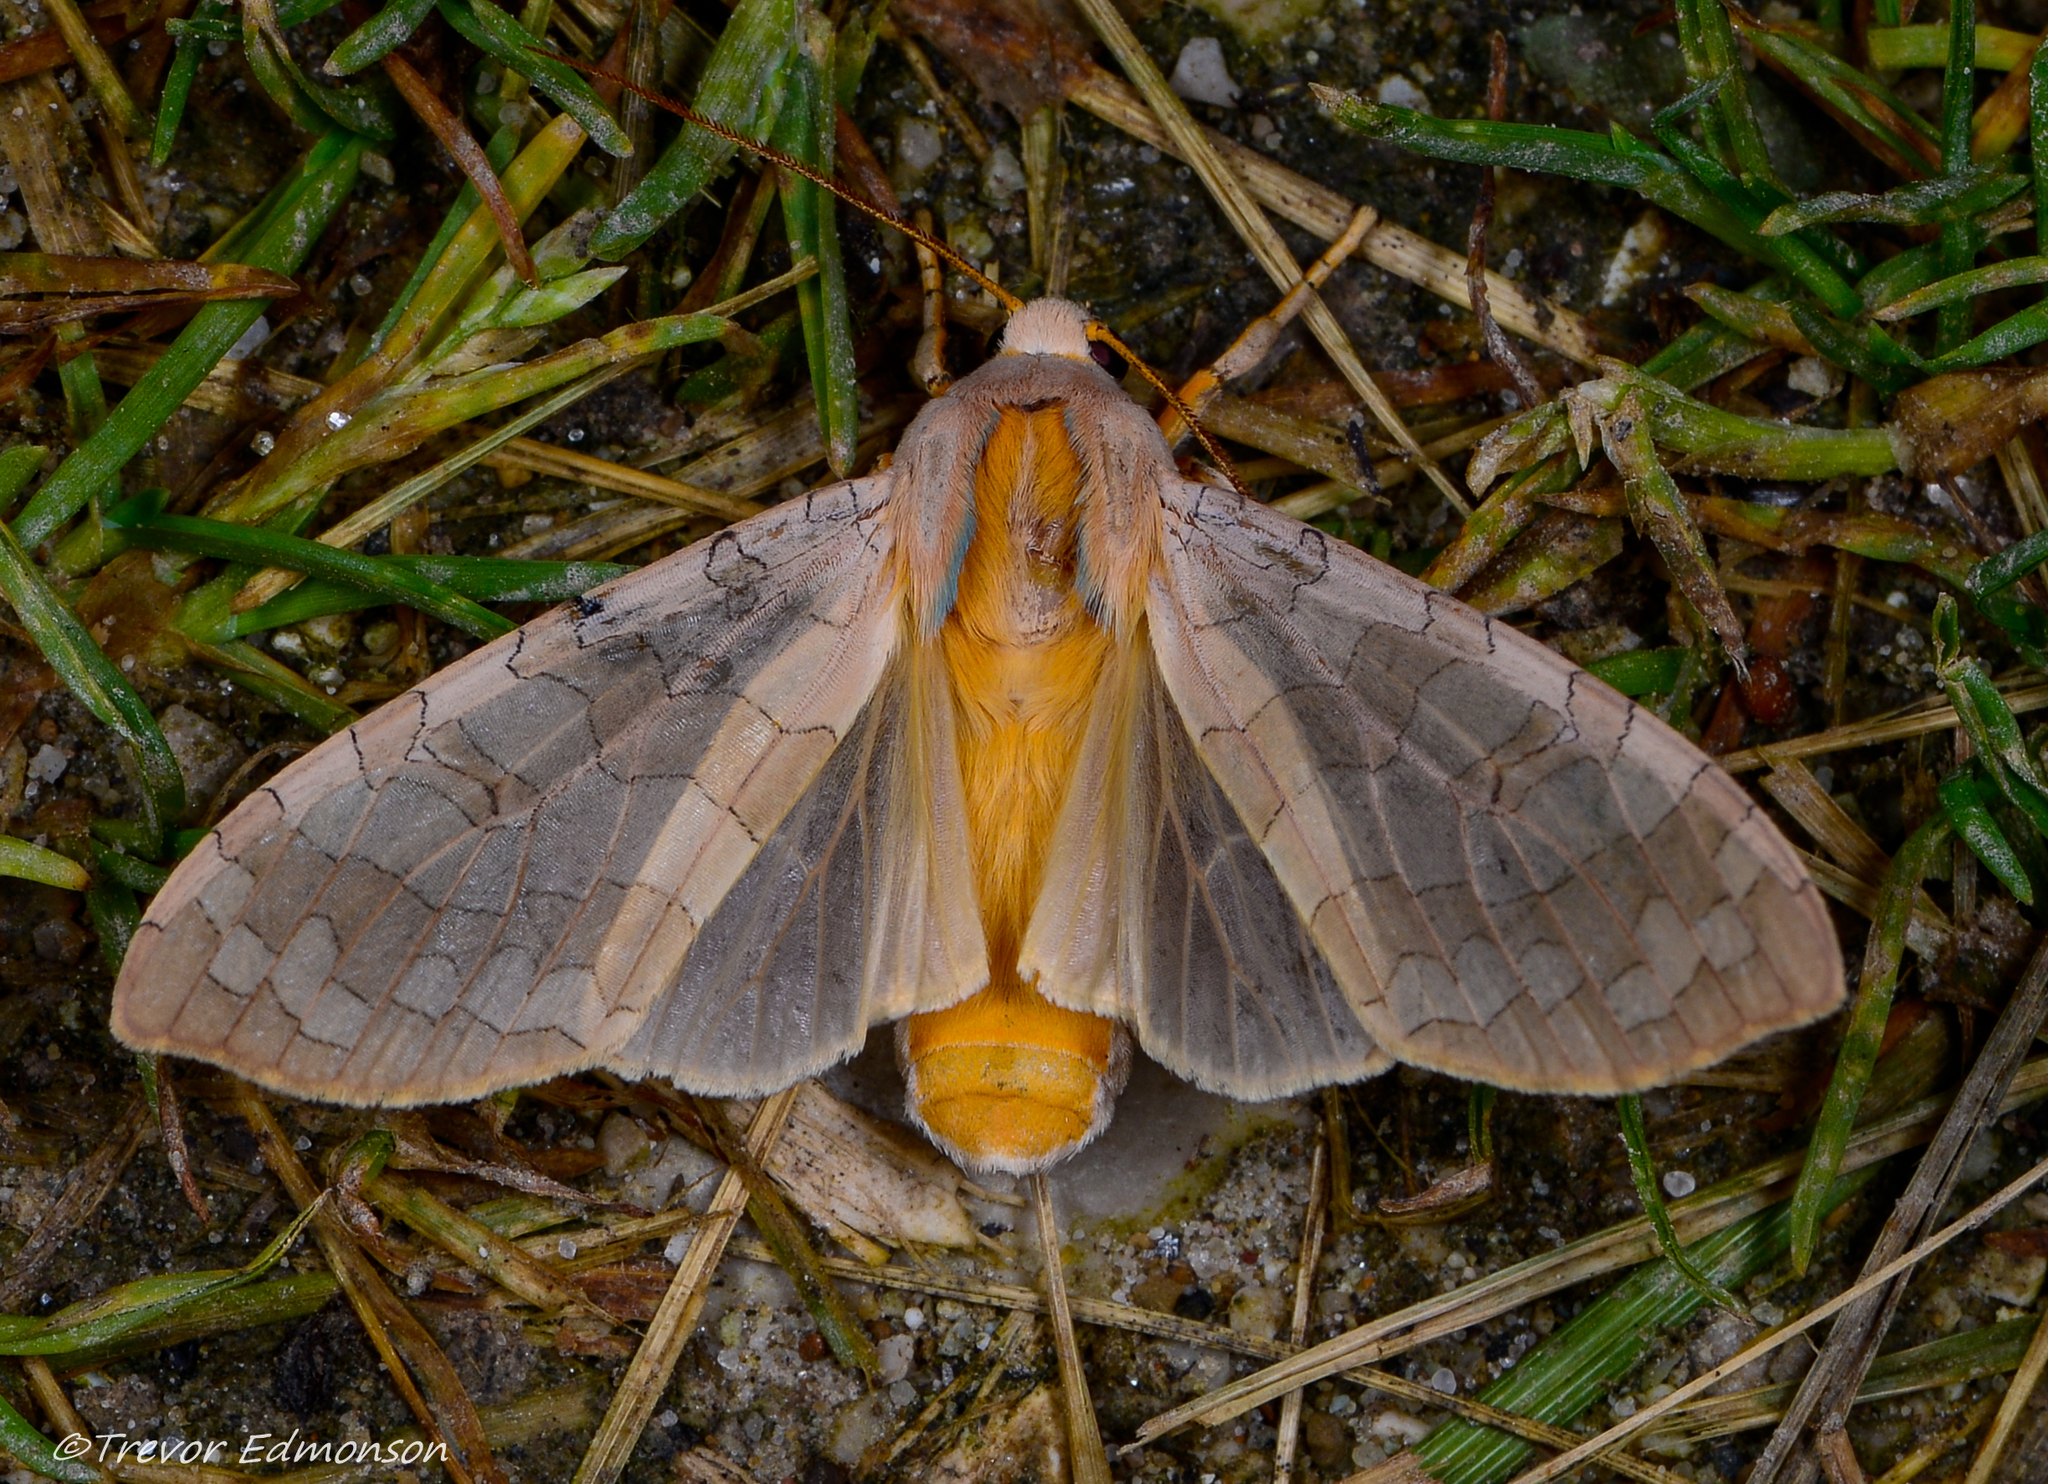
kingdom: Animalia
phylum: Arthropoda
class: Insecta
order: Lepidoptera
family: Erebidae
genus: Halysidota
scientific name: Halysidota
